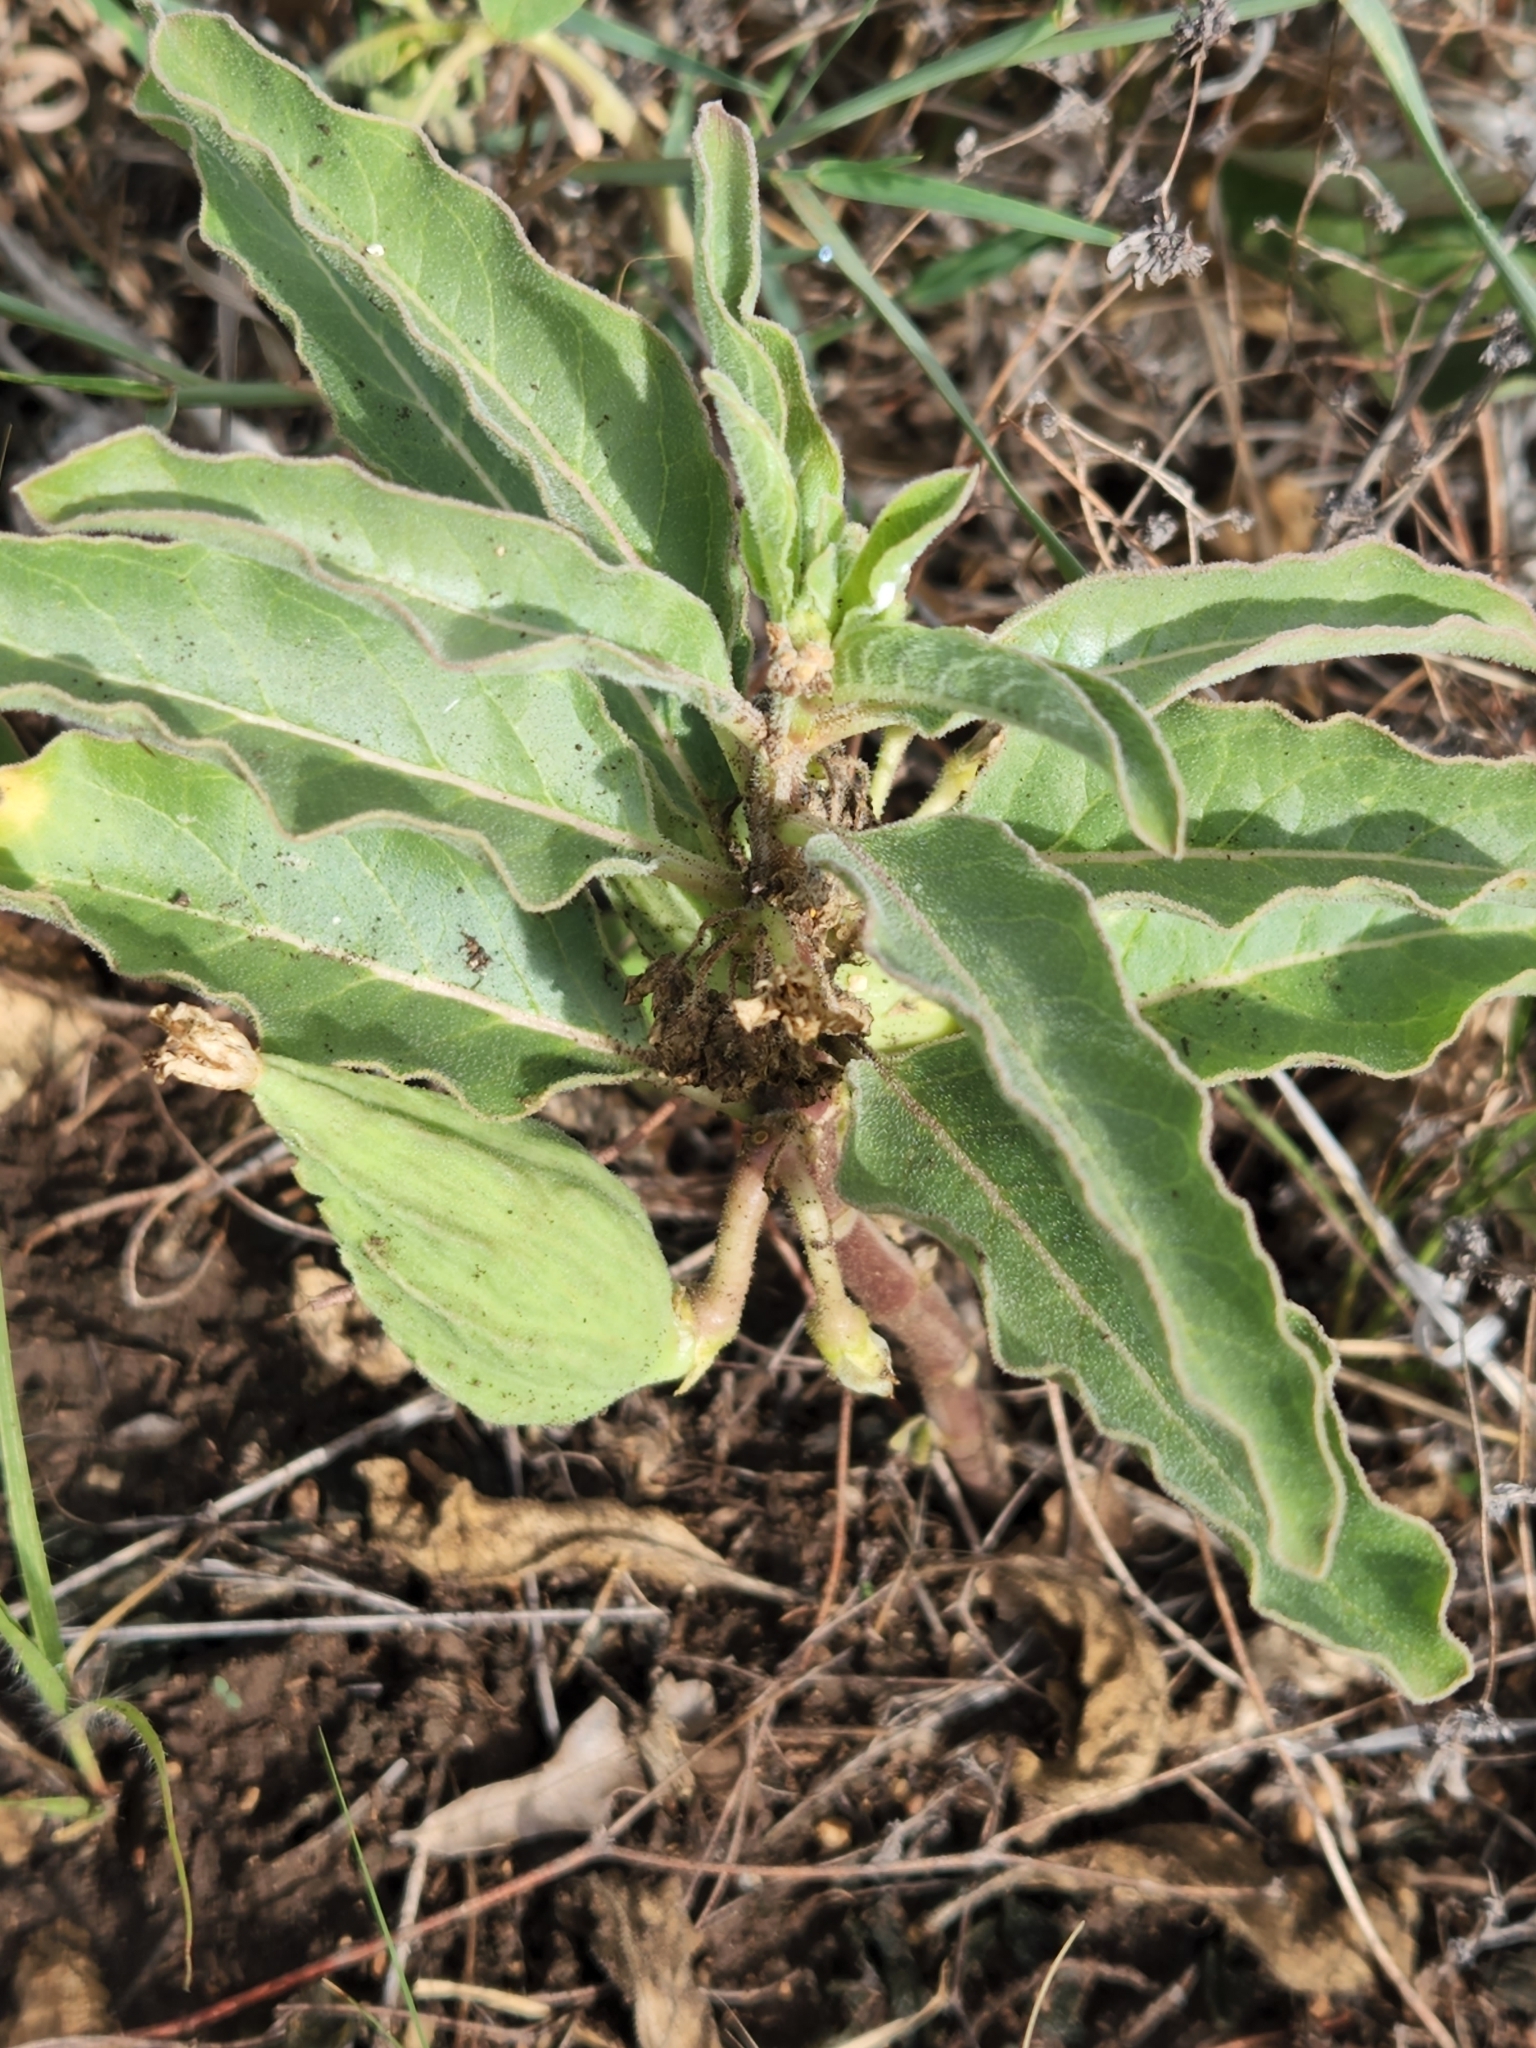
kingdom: Plantae
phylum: Tracheophyta
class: Magnoliopsida
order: Gentianales
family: Apocynaceae
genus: Asclepias
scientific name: Asclepias oenotheroides
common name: Zizotes milkweed
